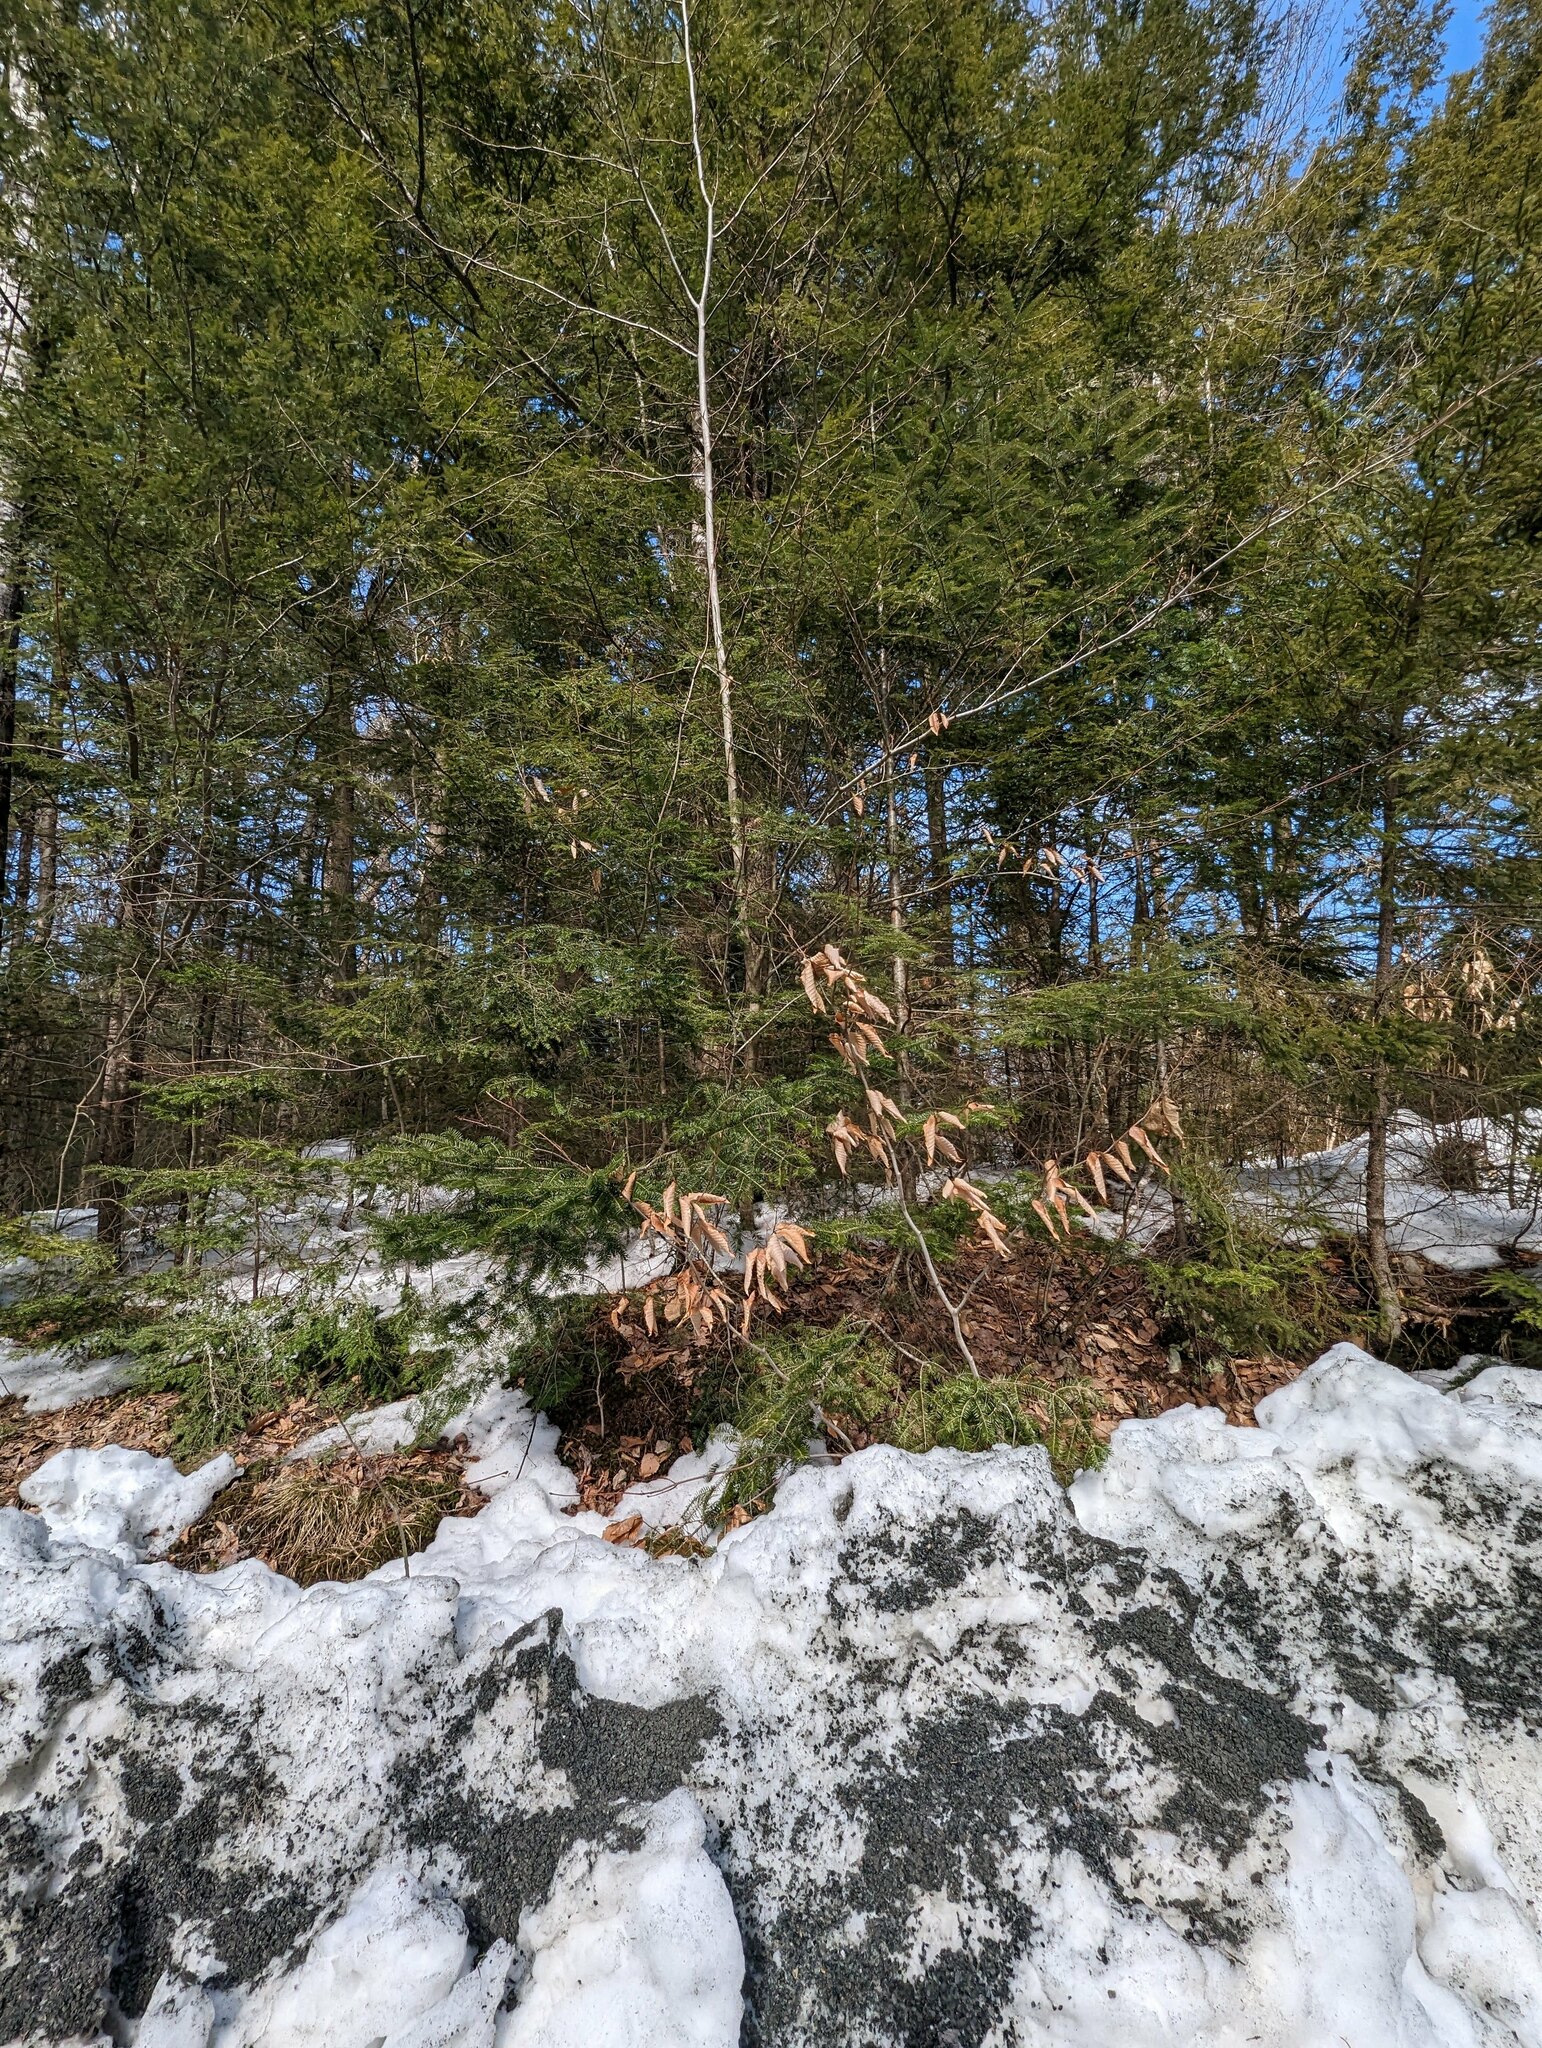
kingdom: Plantae
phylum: Tracheophyta
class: Pinopsida
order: Pinales
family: Pinaceae
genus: Abies
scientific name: Abies balsamea
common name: Balsam fir
